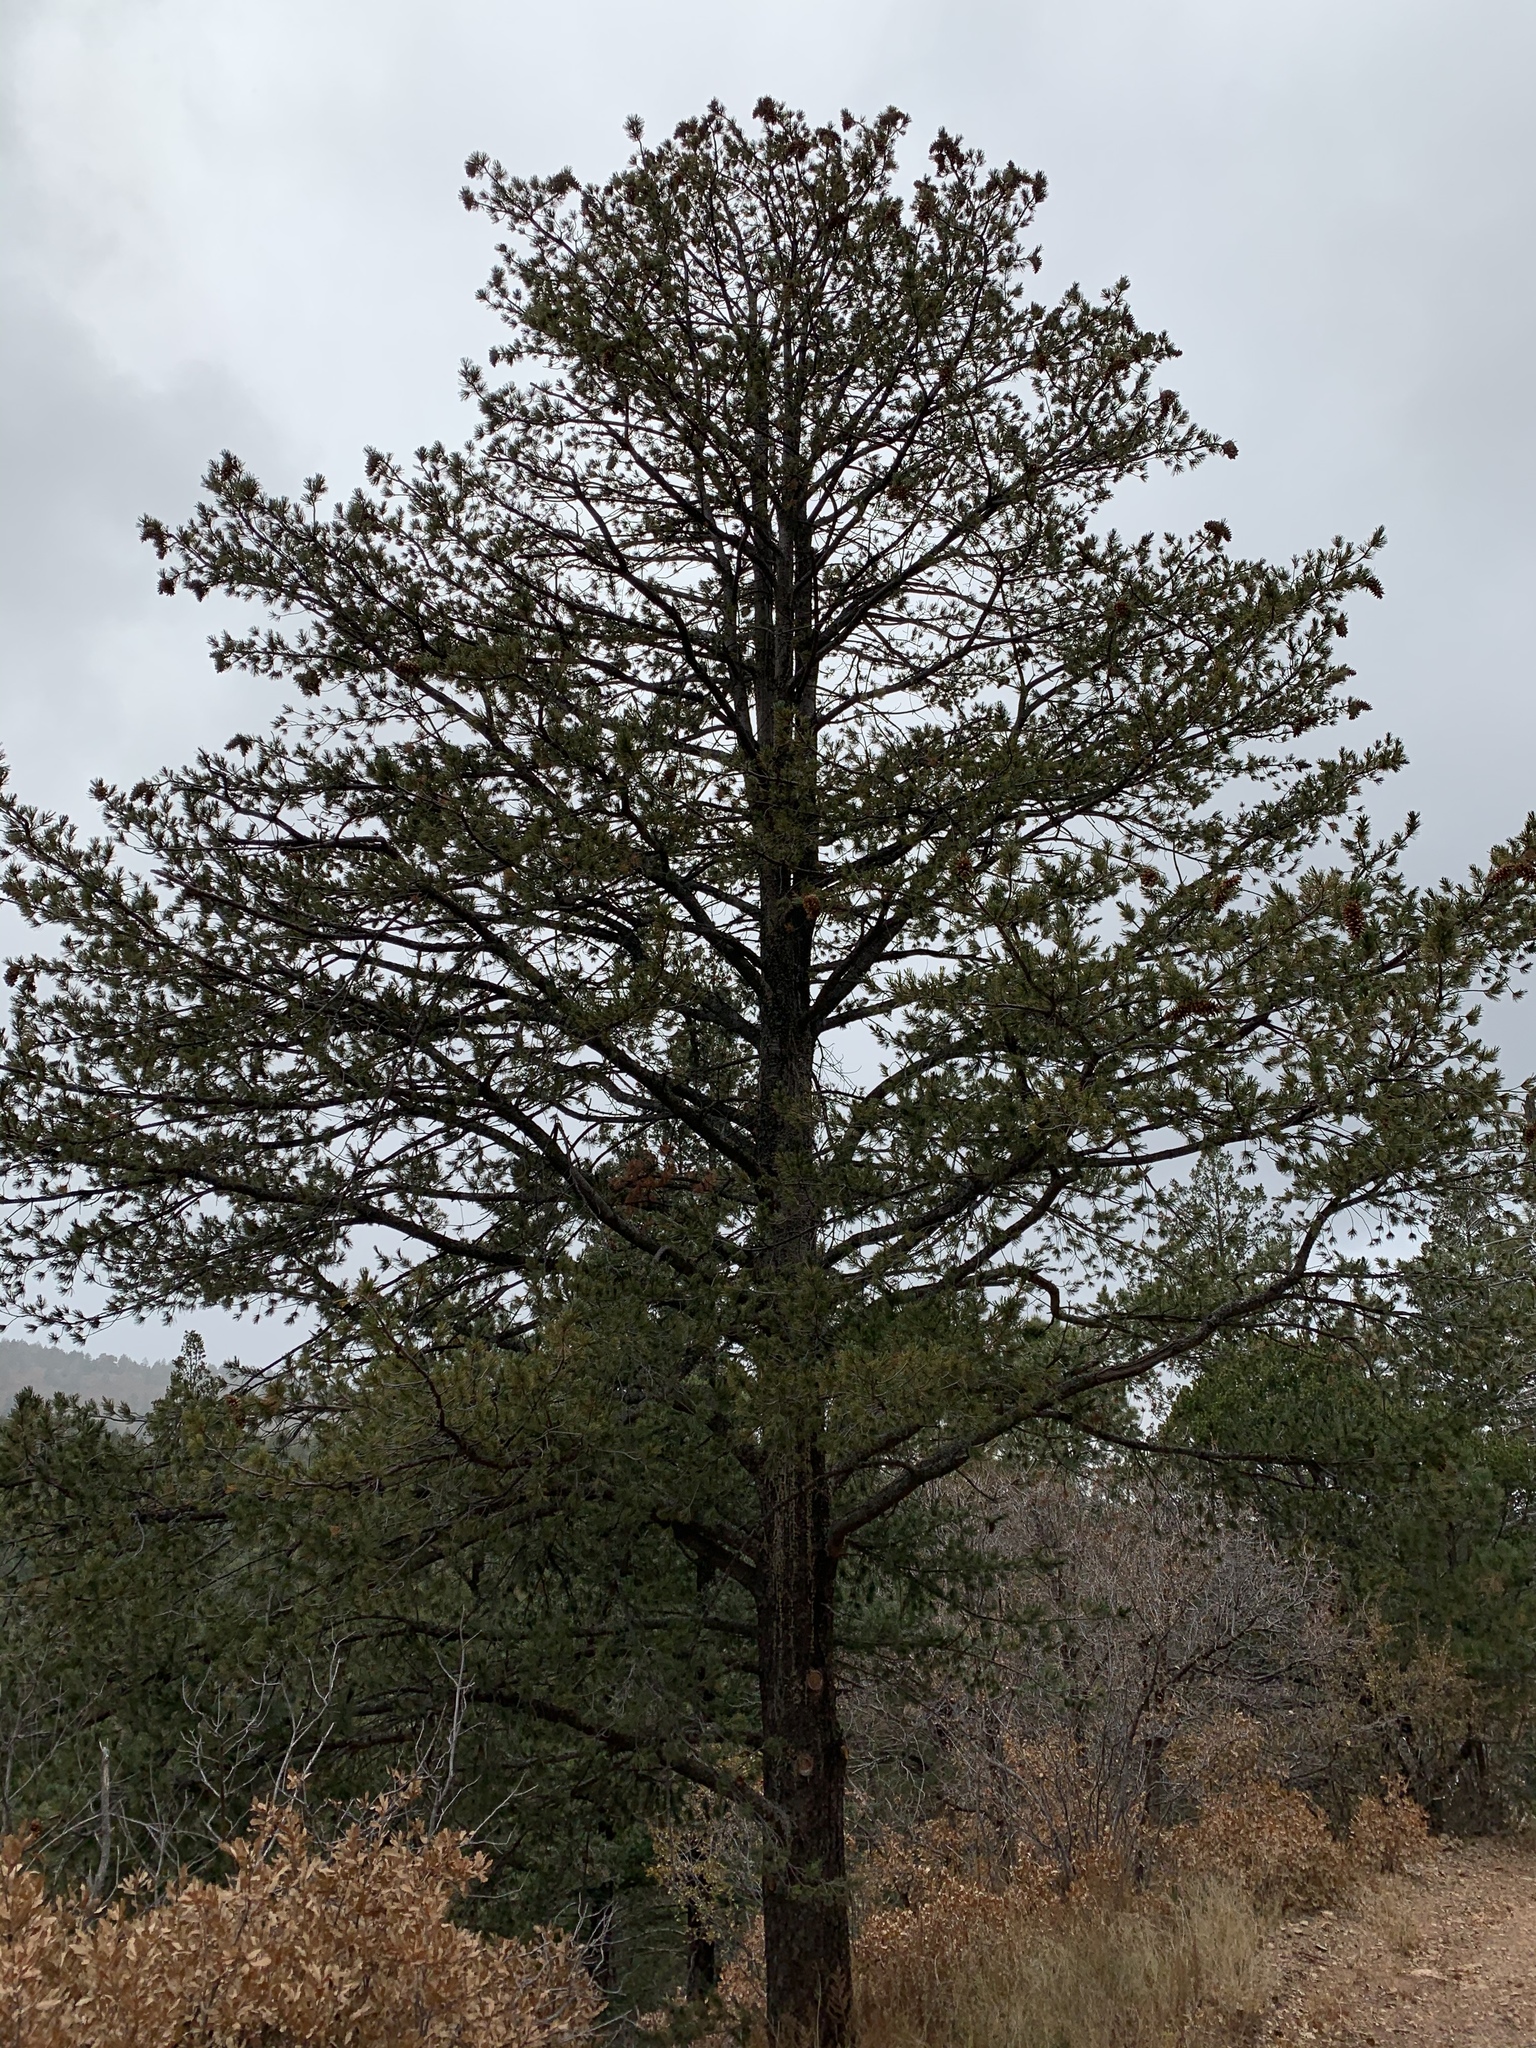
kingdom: Plantae
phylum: Tracheophyta
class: Pinopsida
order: Pinales
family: Pinaceae
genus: Pinus
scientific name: Pinus strobiformis
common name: Southwestern white pine
